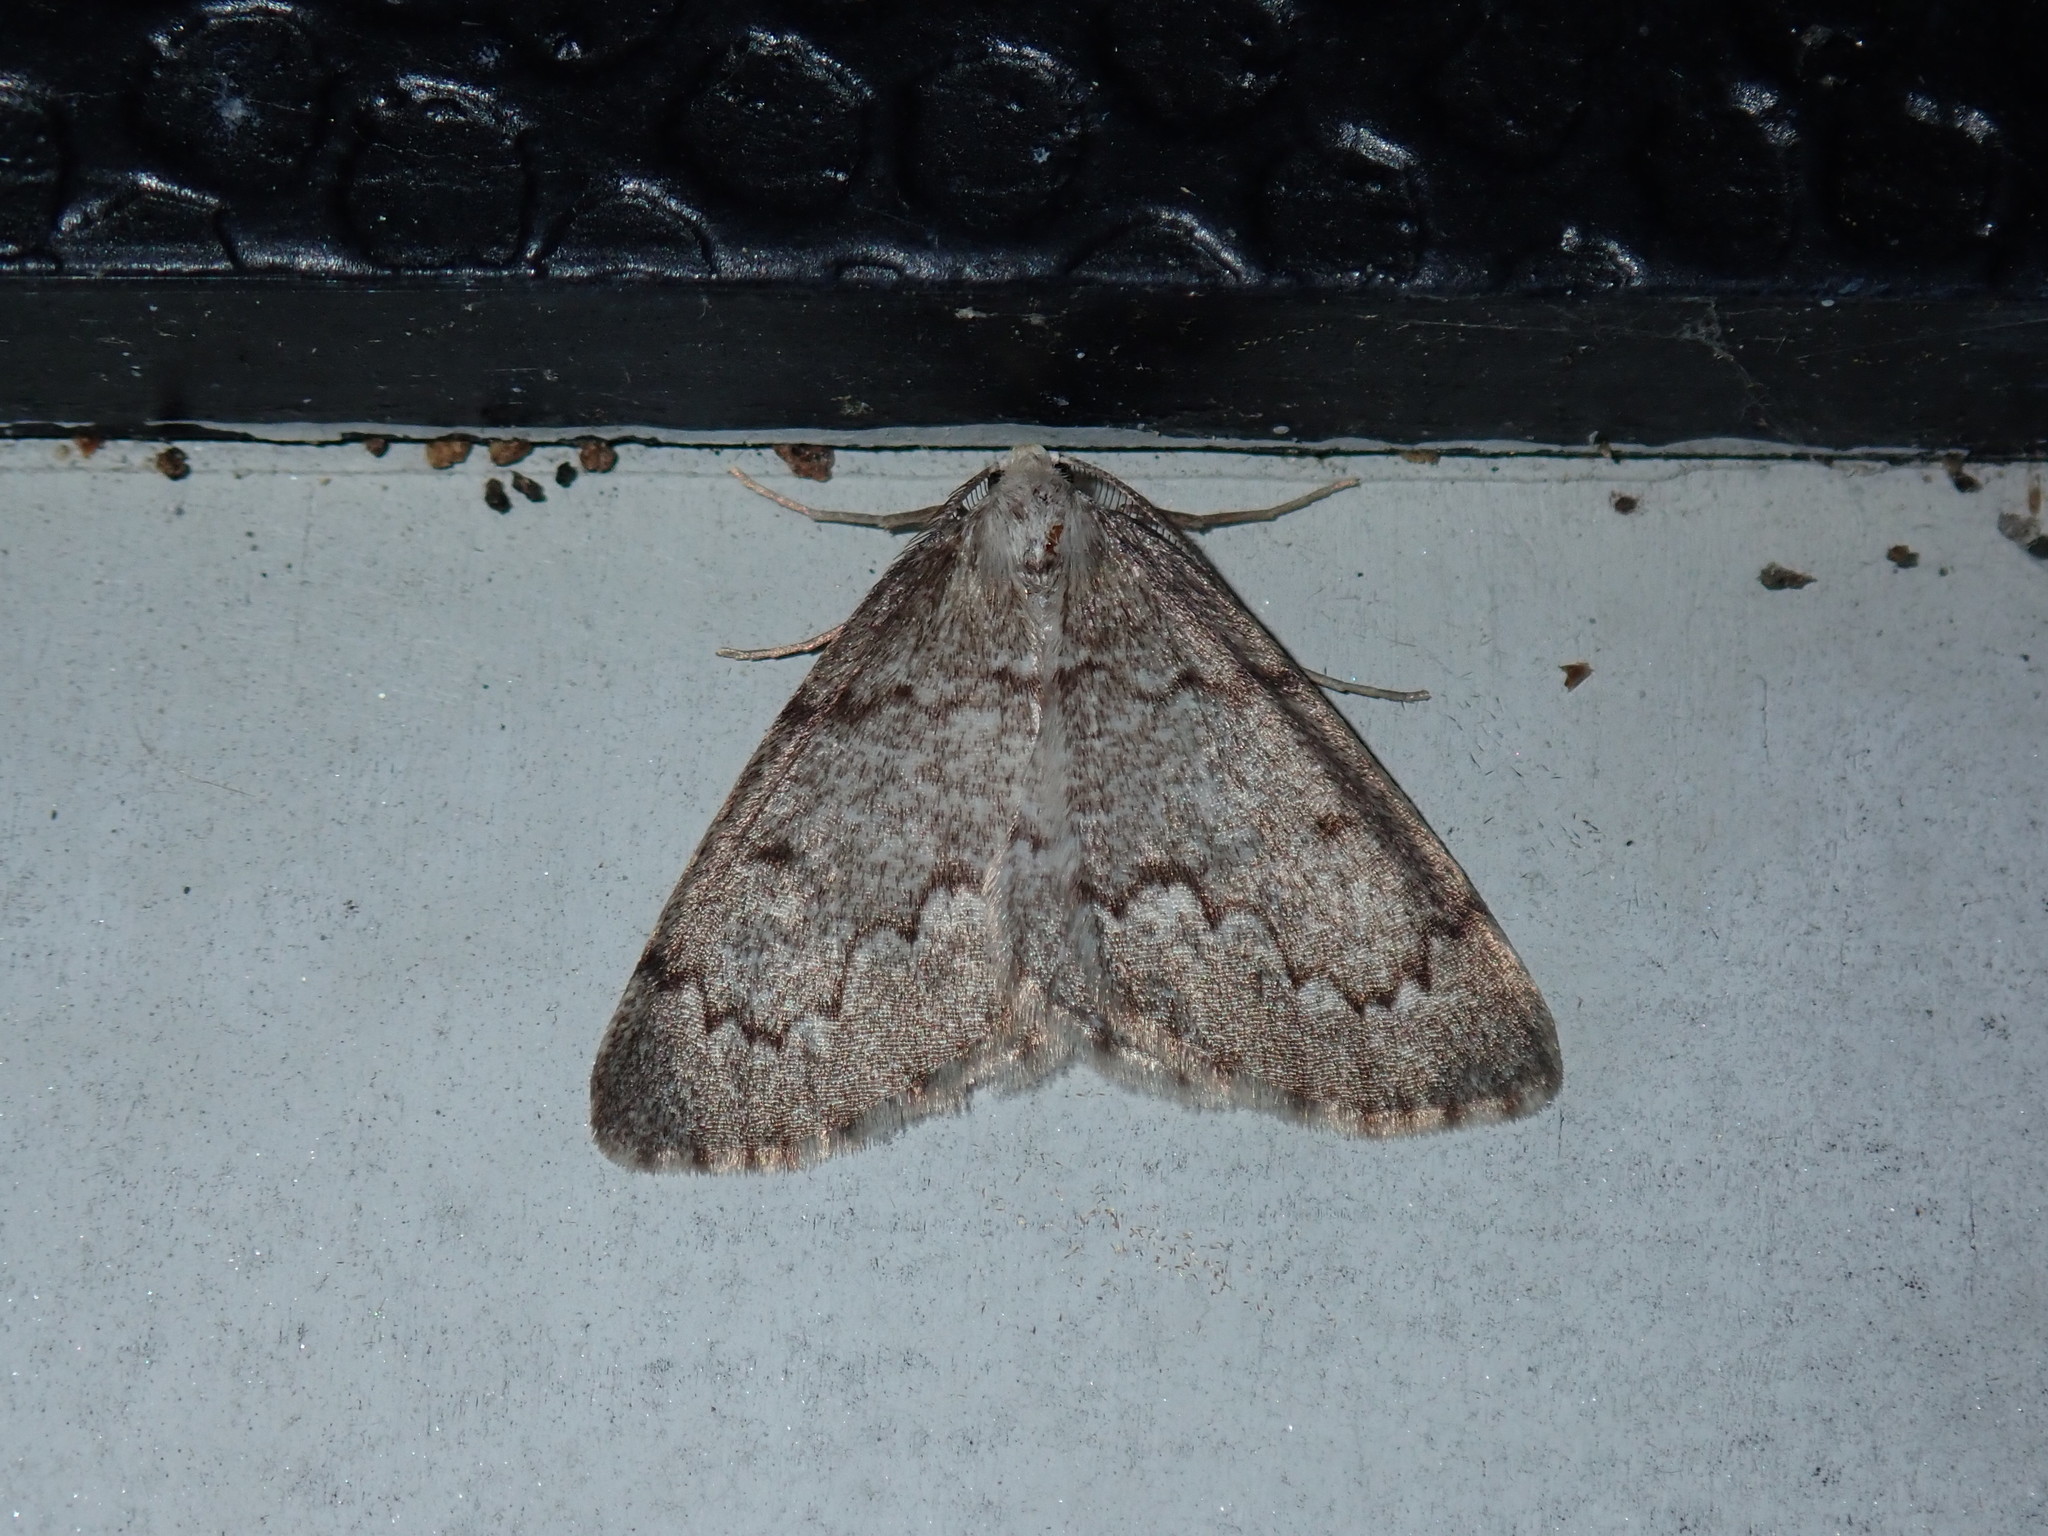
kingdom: Animalia
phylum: Arthropoda
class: Insecta
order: Lepidoptera
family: Geometridae
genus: Nepytia
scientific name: Nepytia canosaria
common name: False hemlock looper
